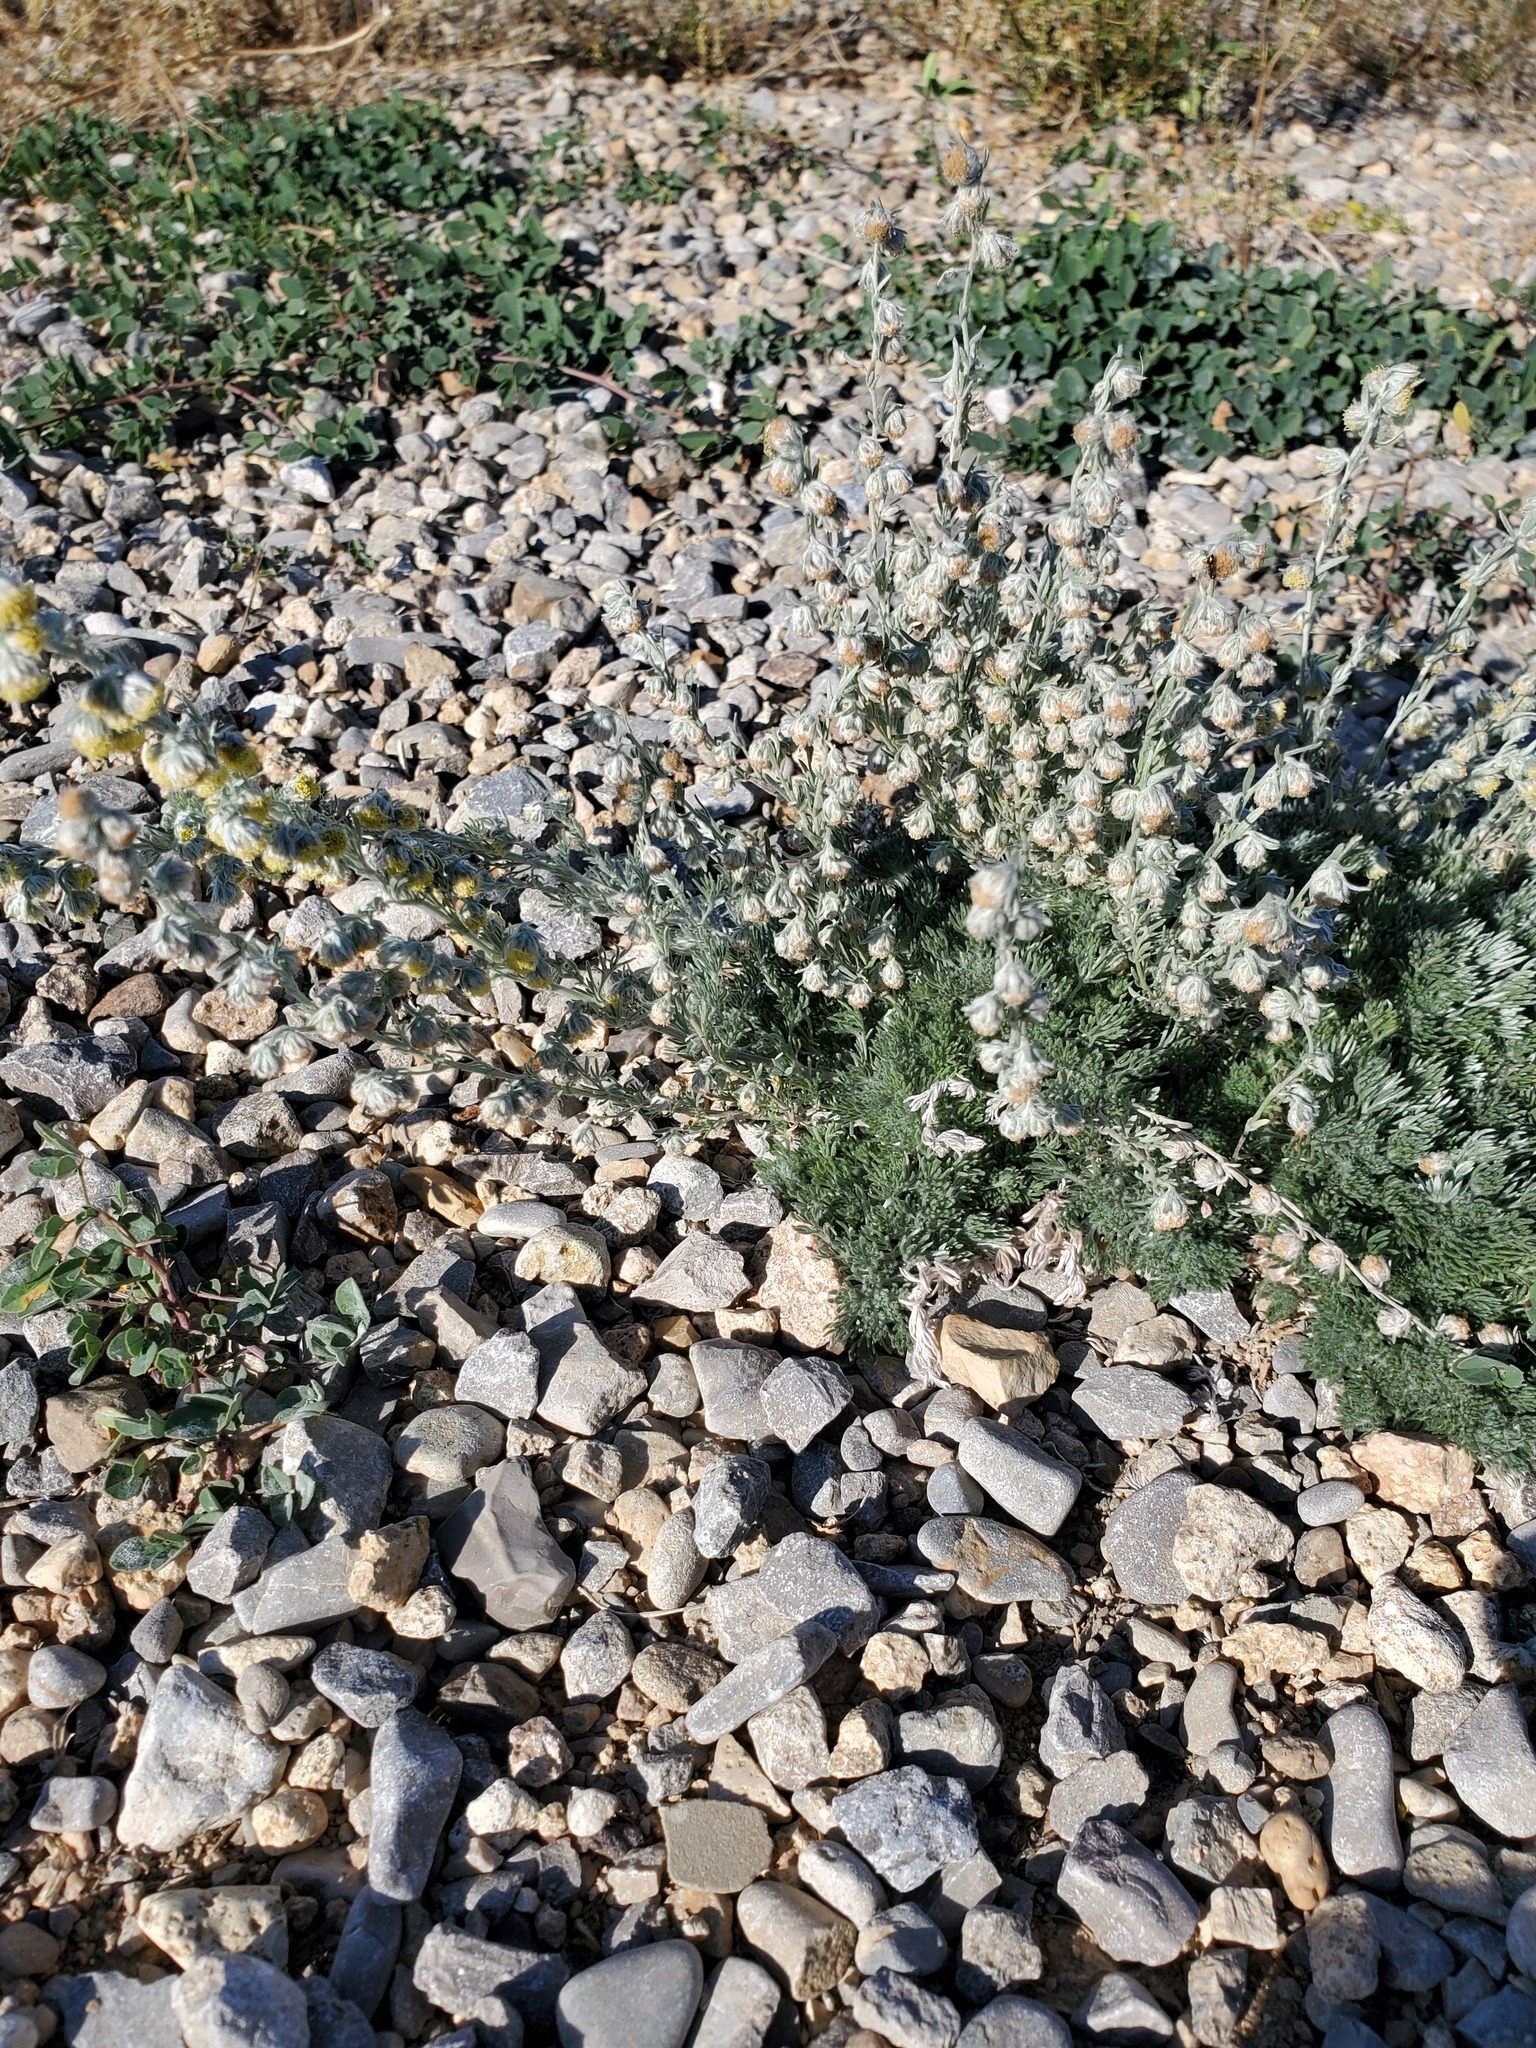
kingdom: Plantae
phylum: Tracheophyta
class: Magnoliopsida
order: Asterales
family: Asteraceae
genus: Artemisia
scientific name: Artemisia frigida
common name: Prairie sagewort
